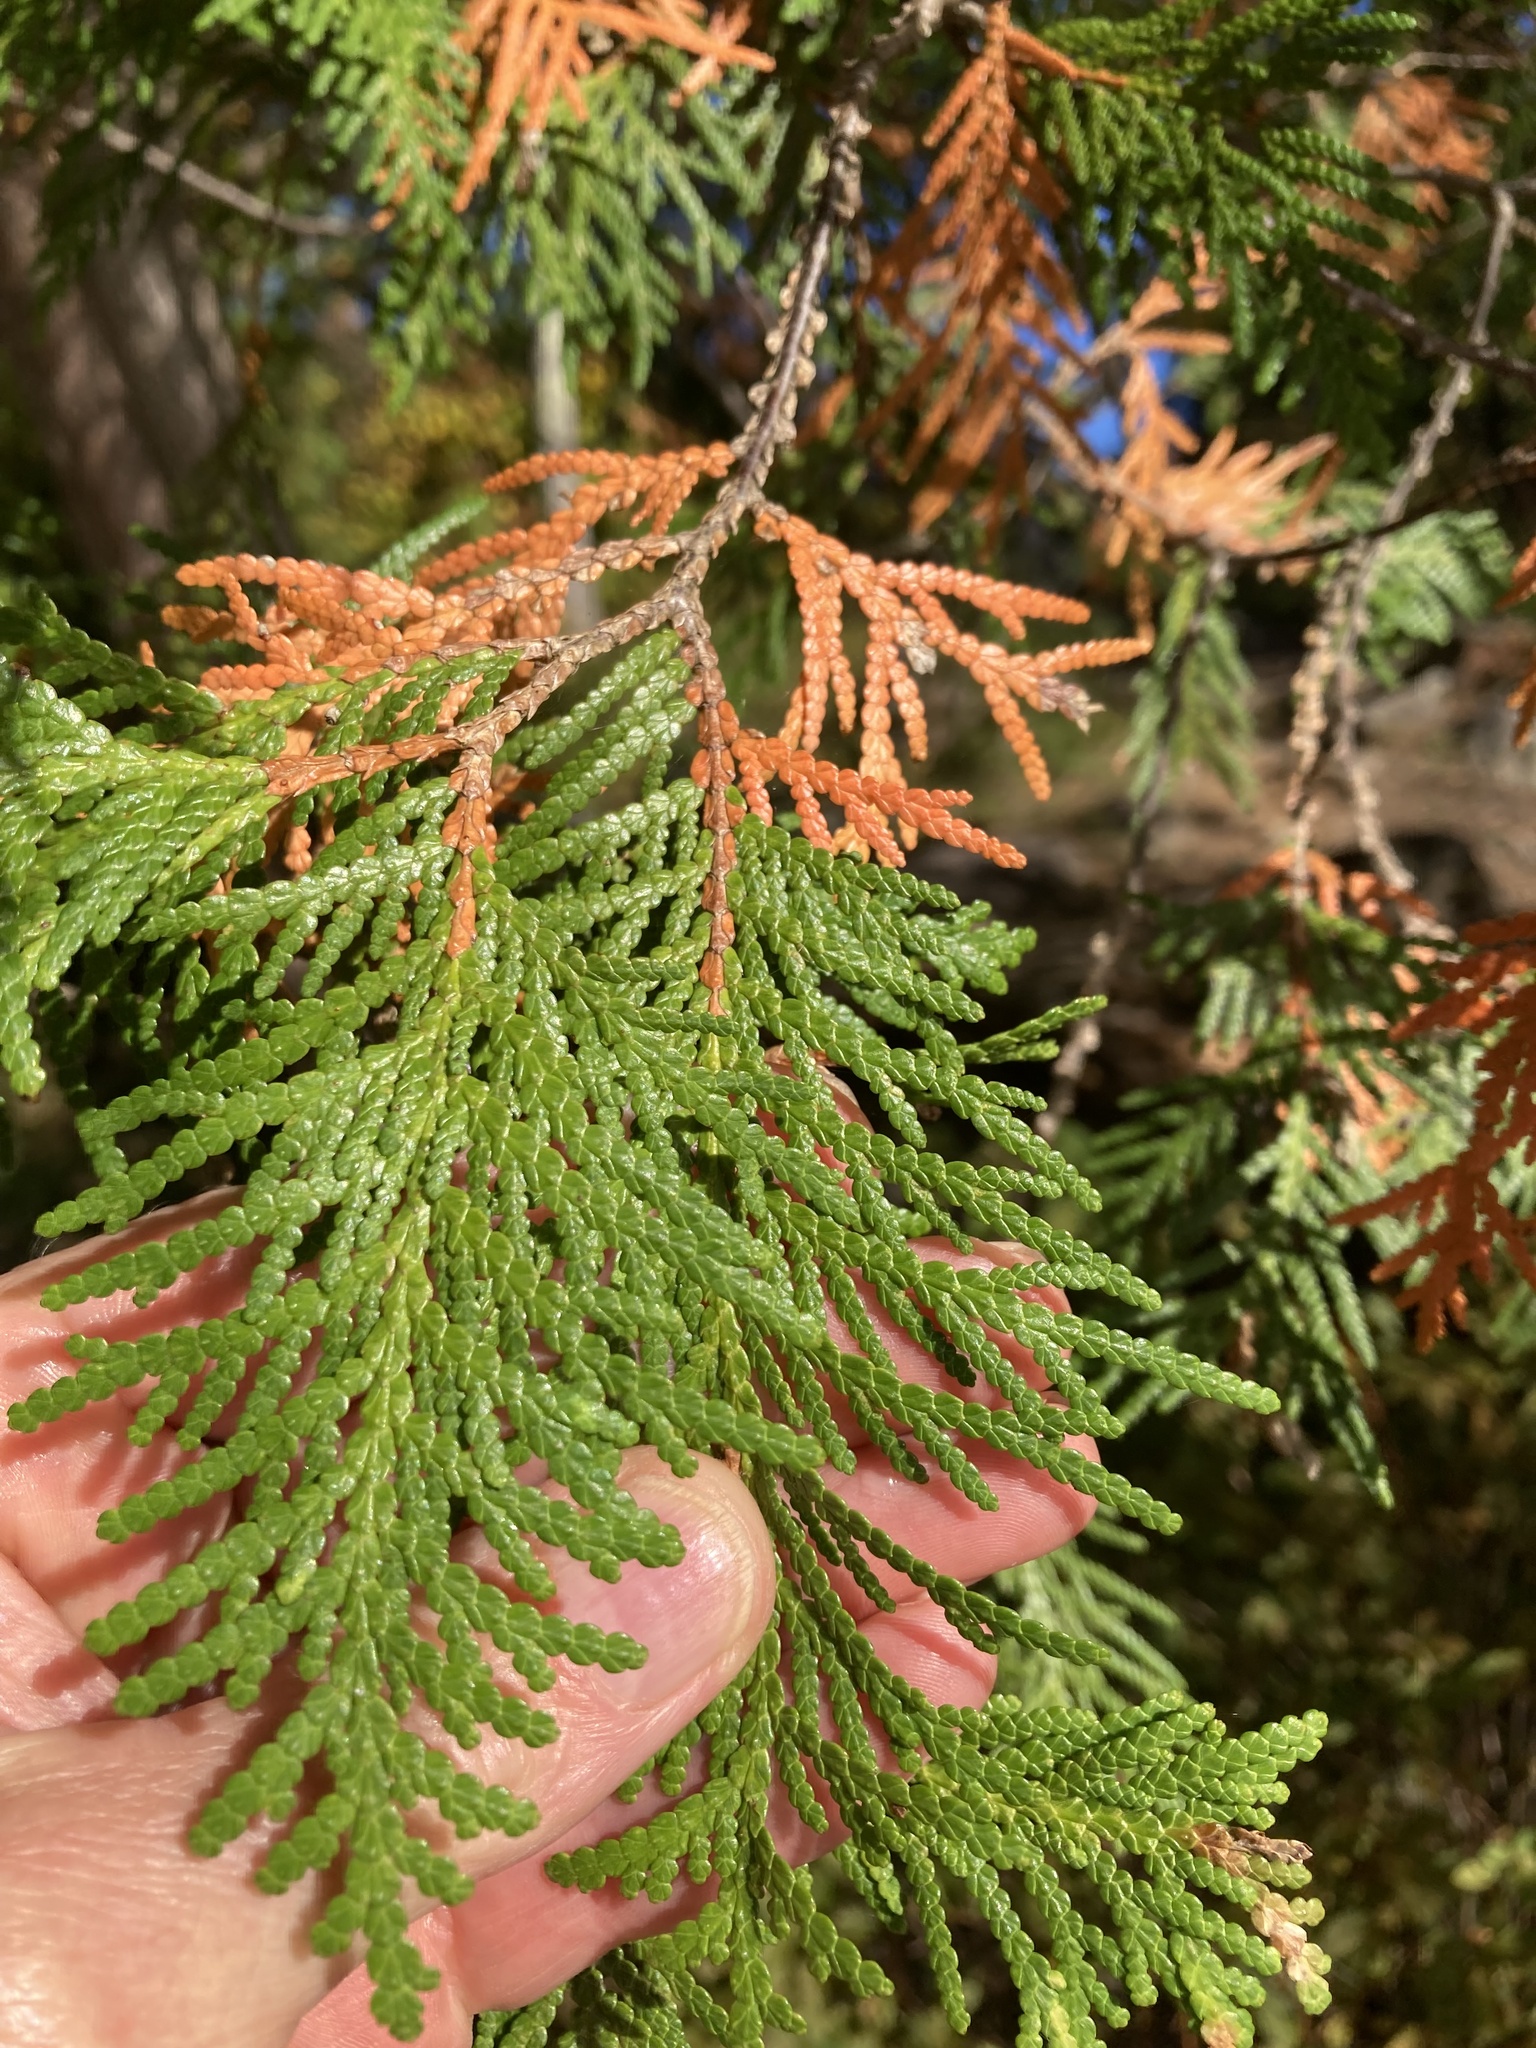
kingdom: Plantae
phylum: Tracheophyta
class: Pinopsida
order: Pinales
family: Cupressaceae
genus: Thuja
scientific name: Thuja occidentalis
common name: Northern white-cedar
